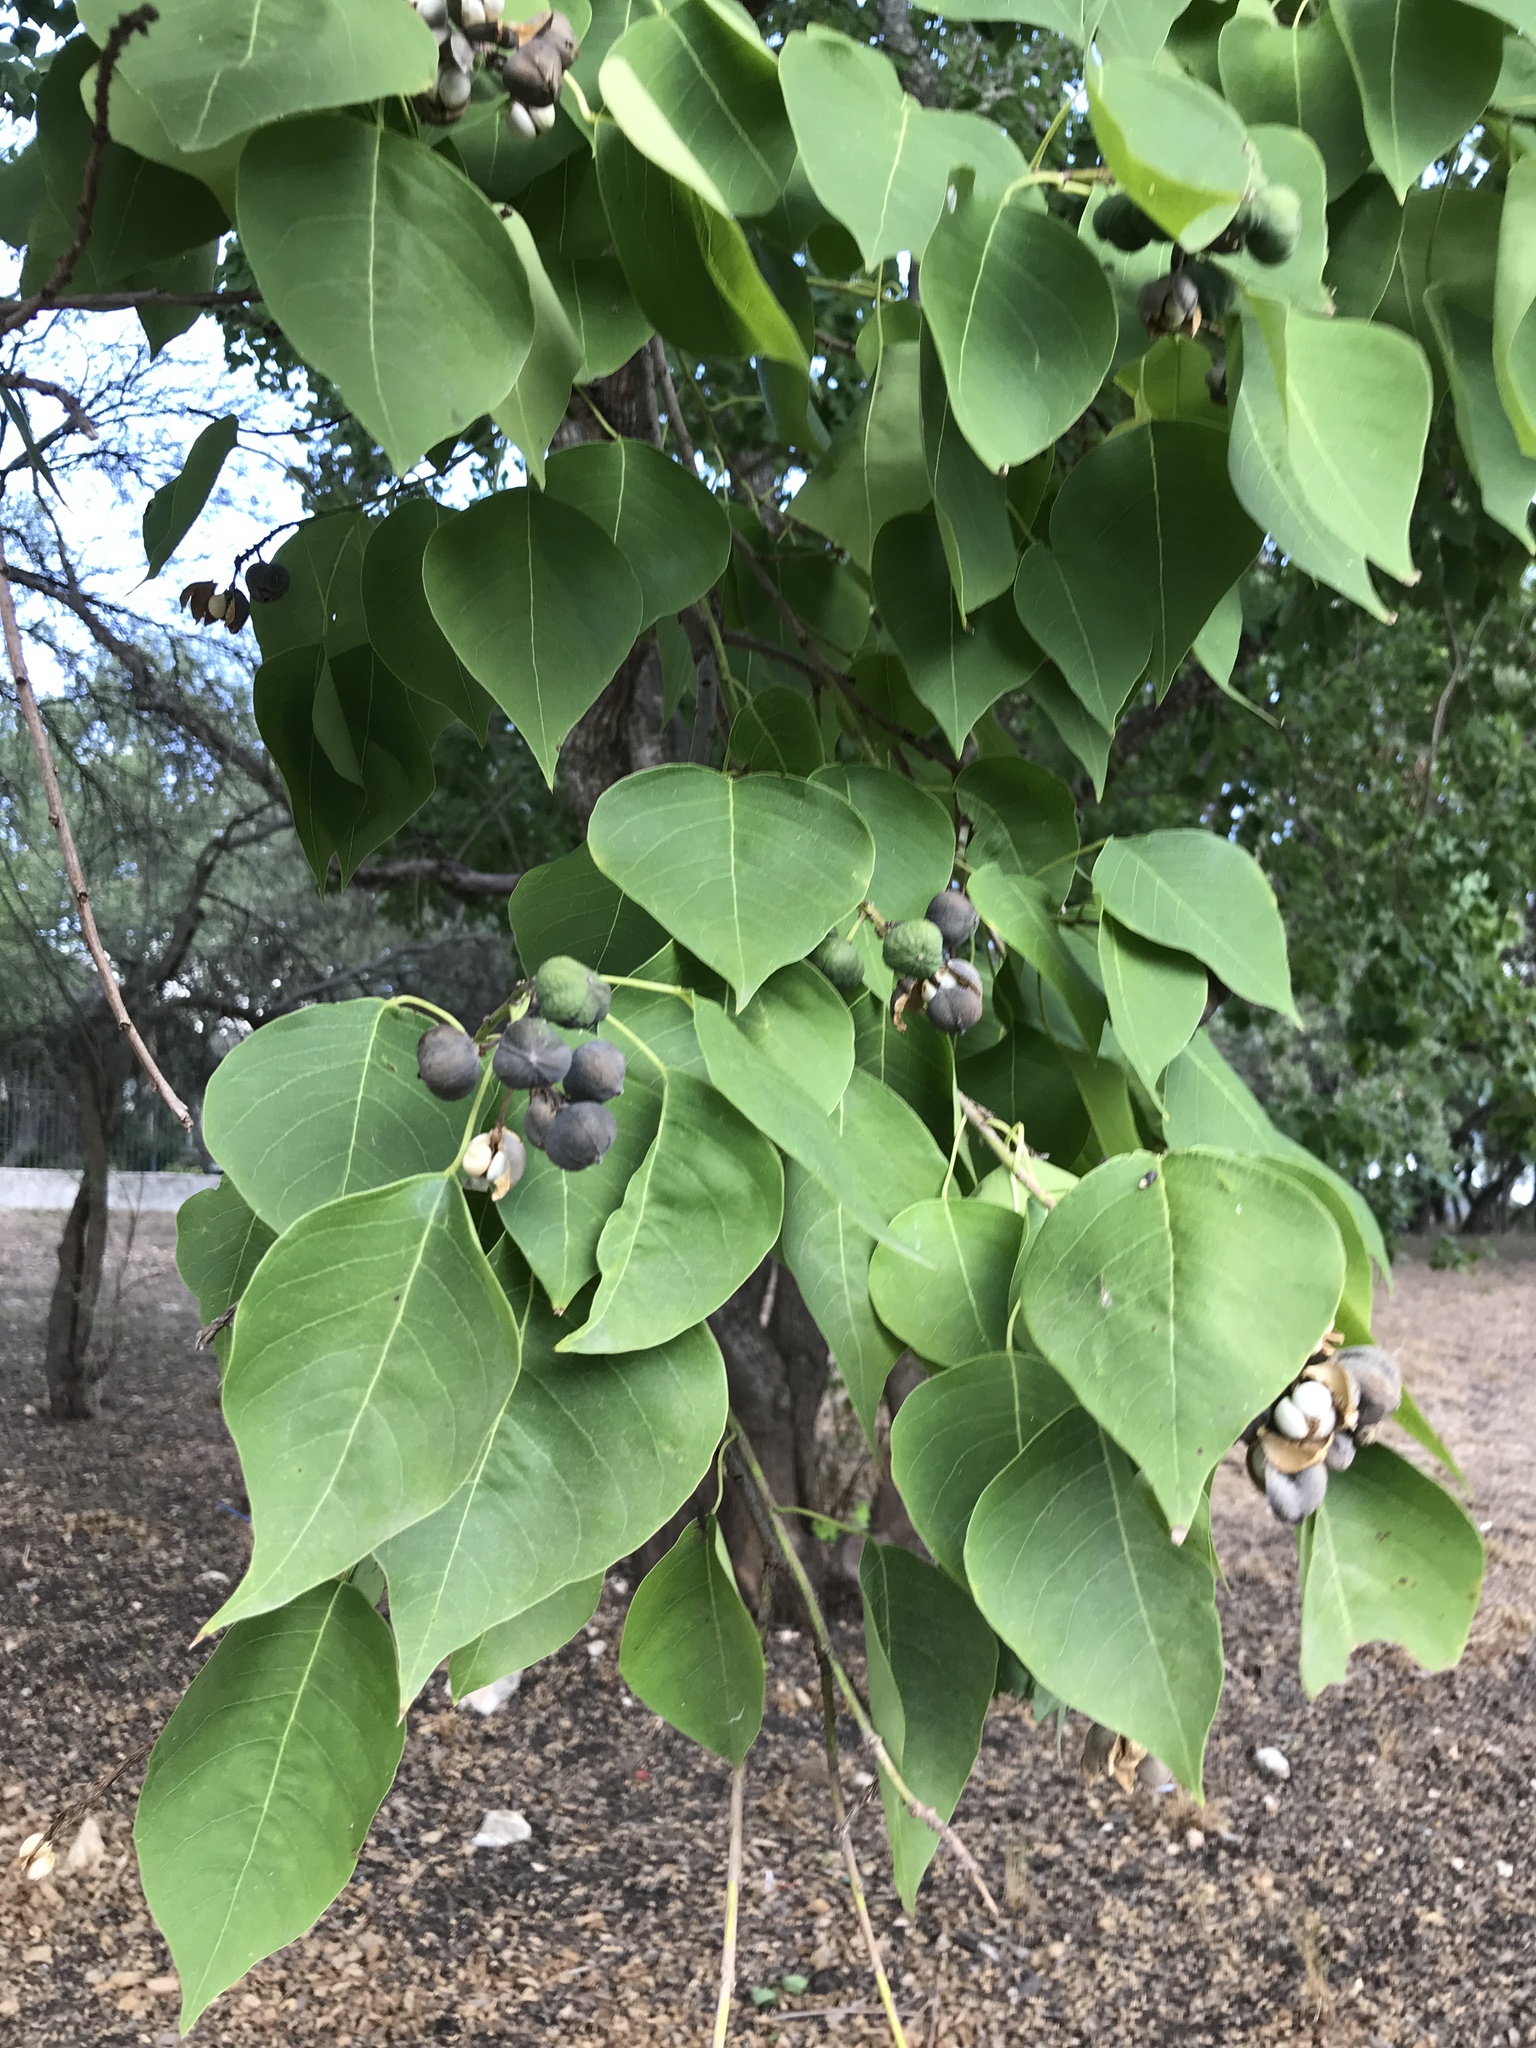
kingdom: Plantae
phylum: Tracheophyta
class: Magnoliopsida
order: Malpighiales
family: Euphorbiaceae
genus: Triadica
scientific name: Triadica sebifera
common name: Chinese tallow
